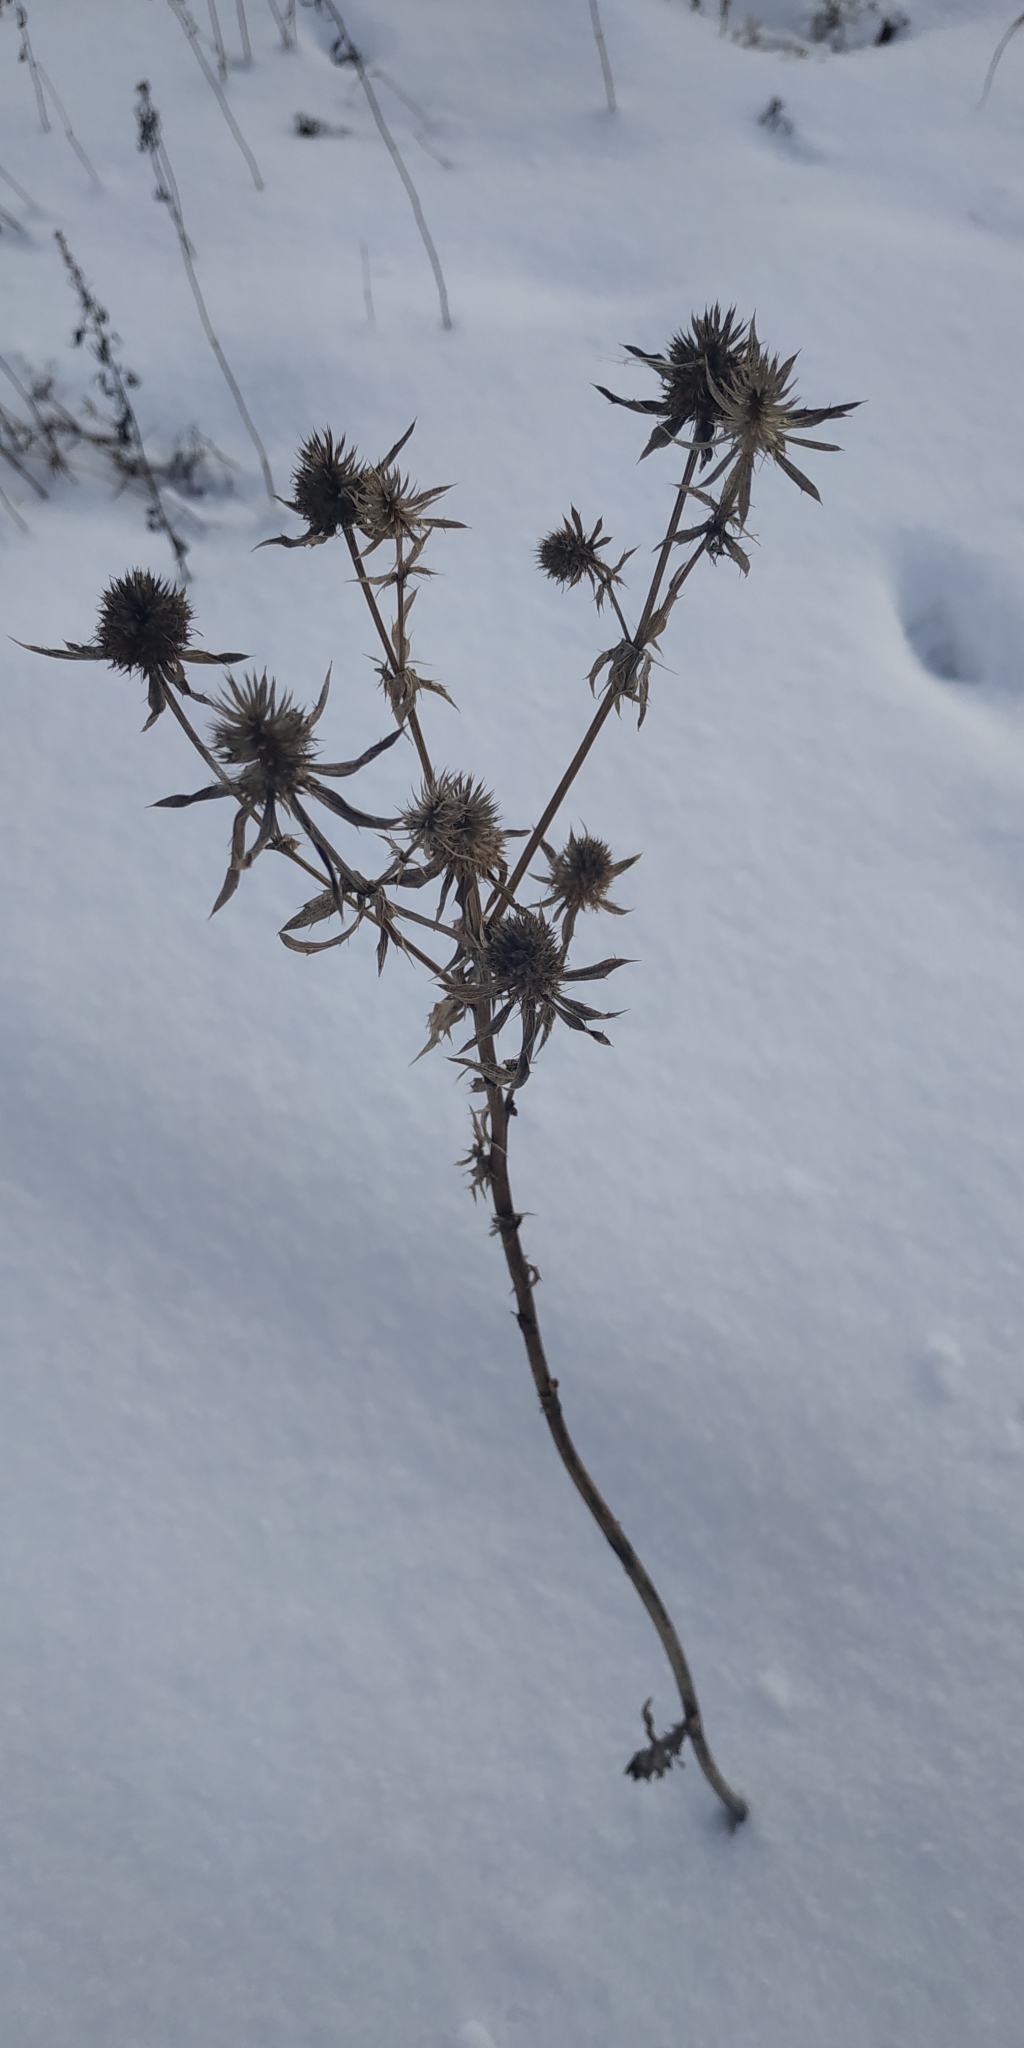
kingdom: Plantae
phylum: Tracheophyta
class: Magnoliopsida
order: Apiales
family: Apiaceae
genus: Eryngium
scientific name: Eryngium planum
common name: Blue eryngo
